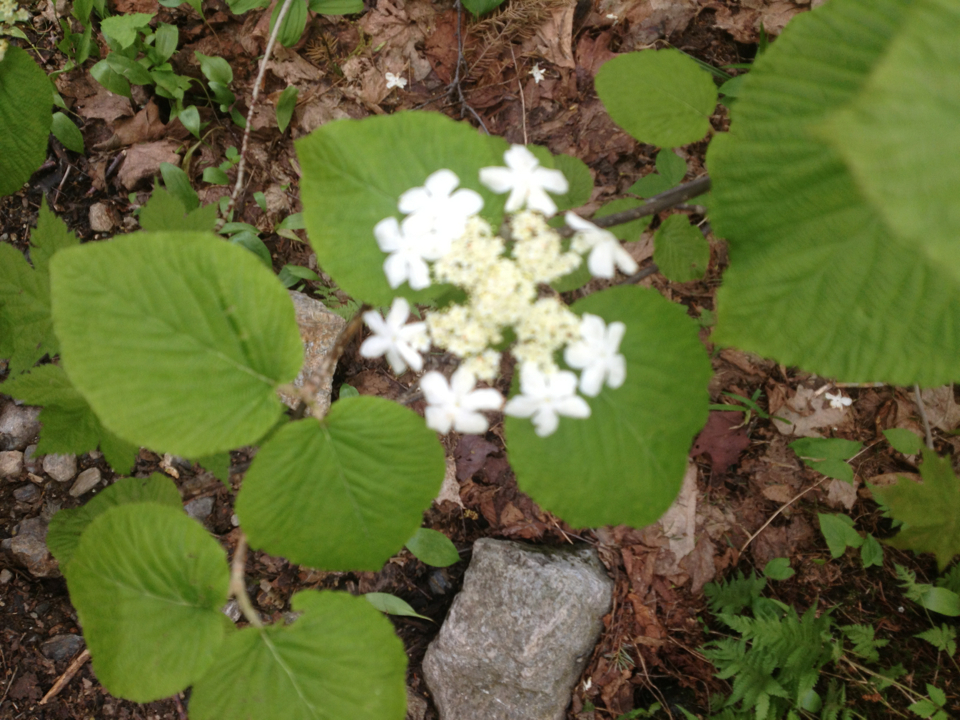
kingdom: Plantae
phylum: Tracheophyta
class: Magnoliopsida
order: Dipsacales
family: Viburnaceae
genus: Viburnum
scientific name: Viburnum lantanoides
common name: Hobblebush
